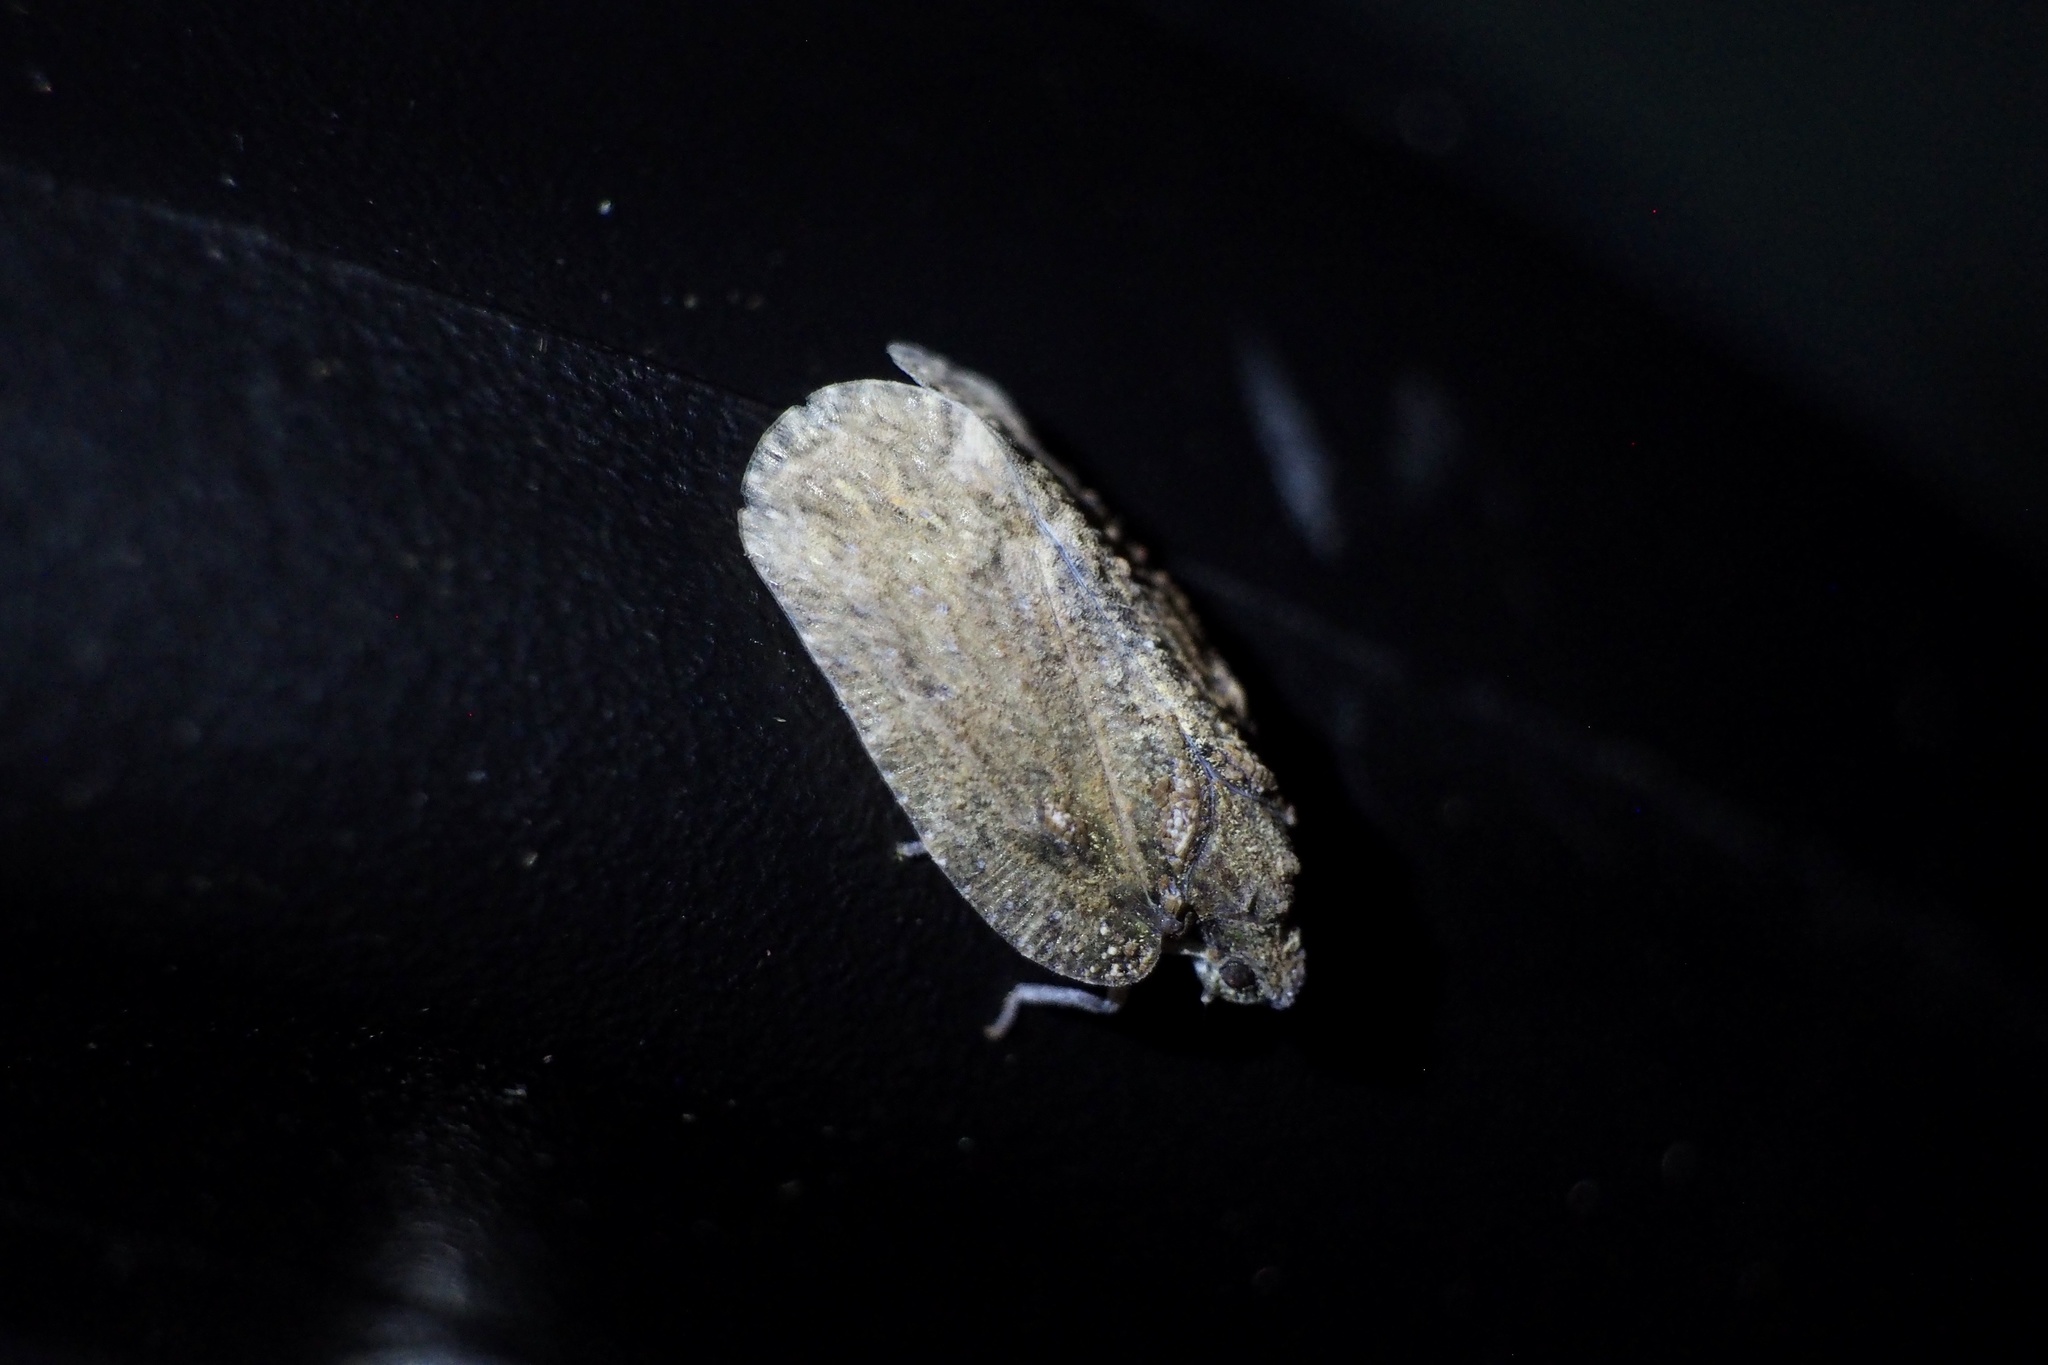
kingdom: Animalia
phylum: Arthropoda
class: Insecta
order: Hemiptera
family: Flatidae
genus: Atracis
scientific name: Atracis mucida
